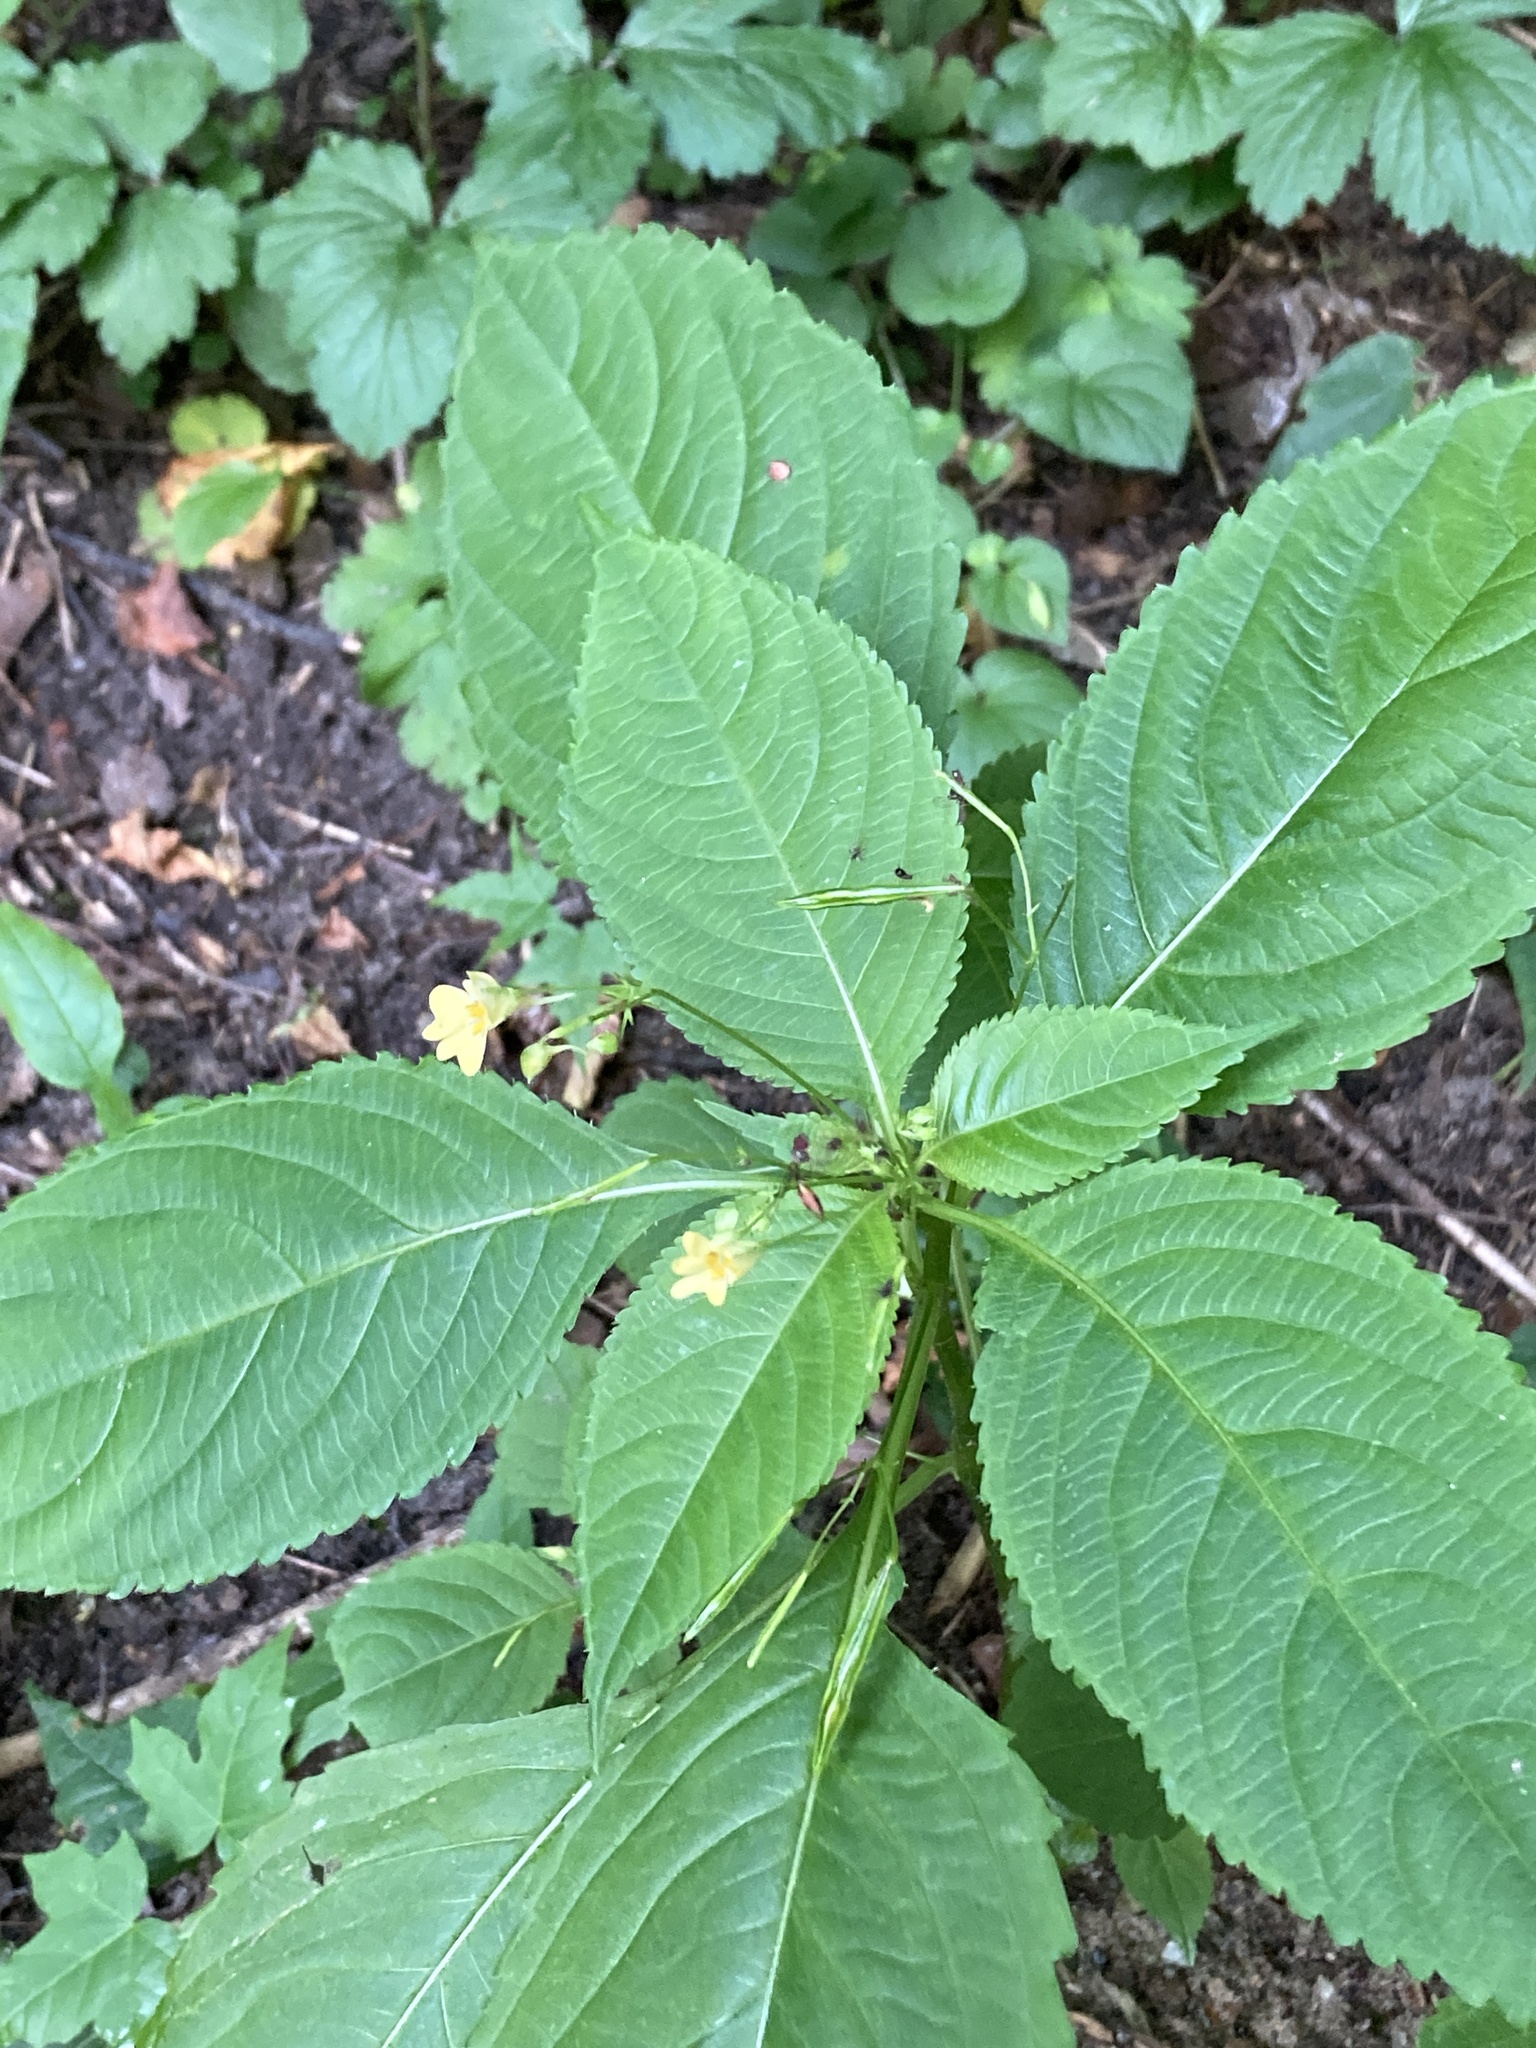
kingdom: Plantae
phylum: Tracheophyta
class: Magnoliopsida
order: Ericales
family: Balsaminaceae
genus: Impatiens
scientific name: Impatiens parviflora
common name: Small balsam
